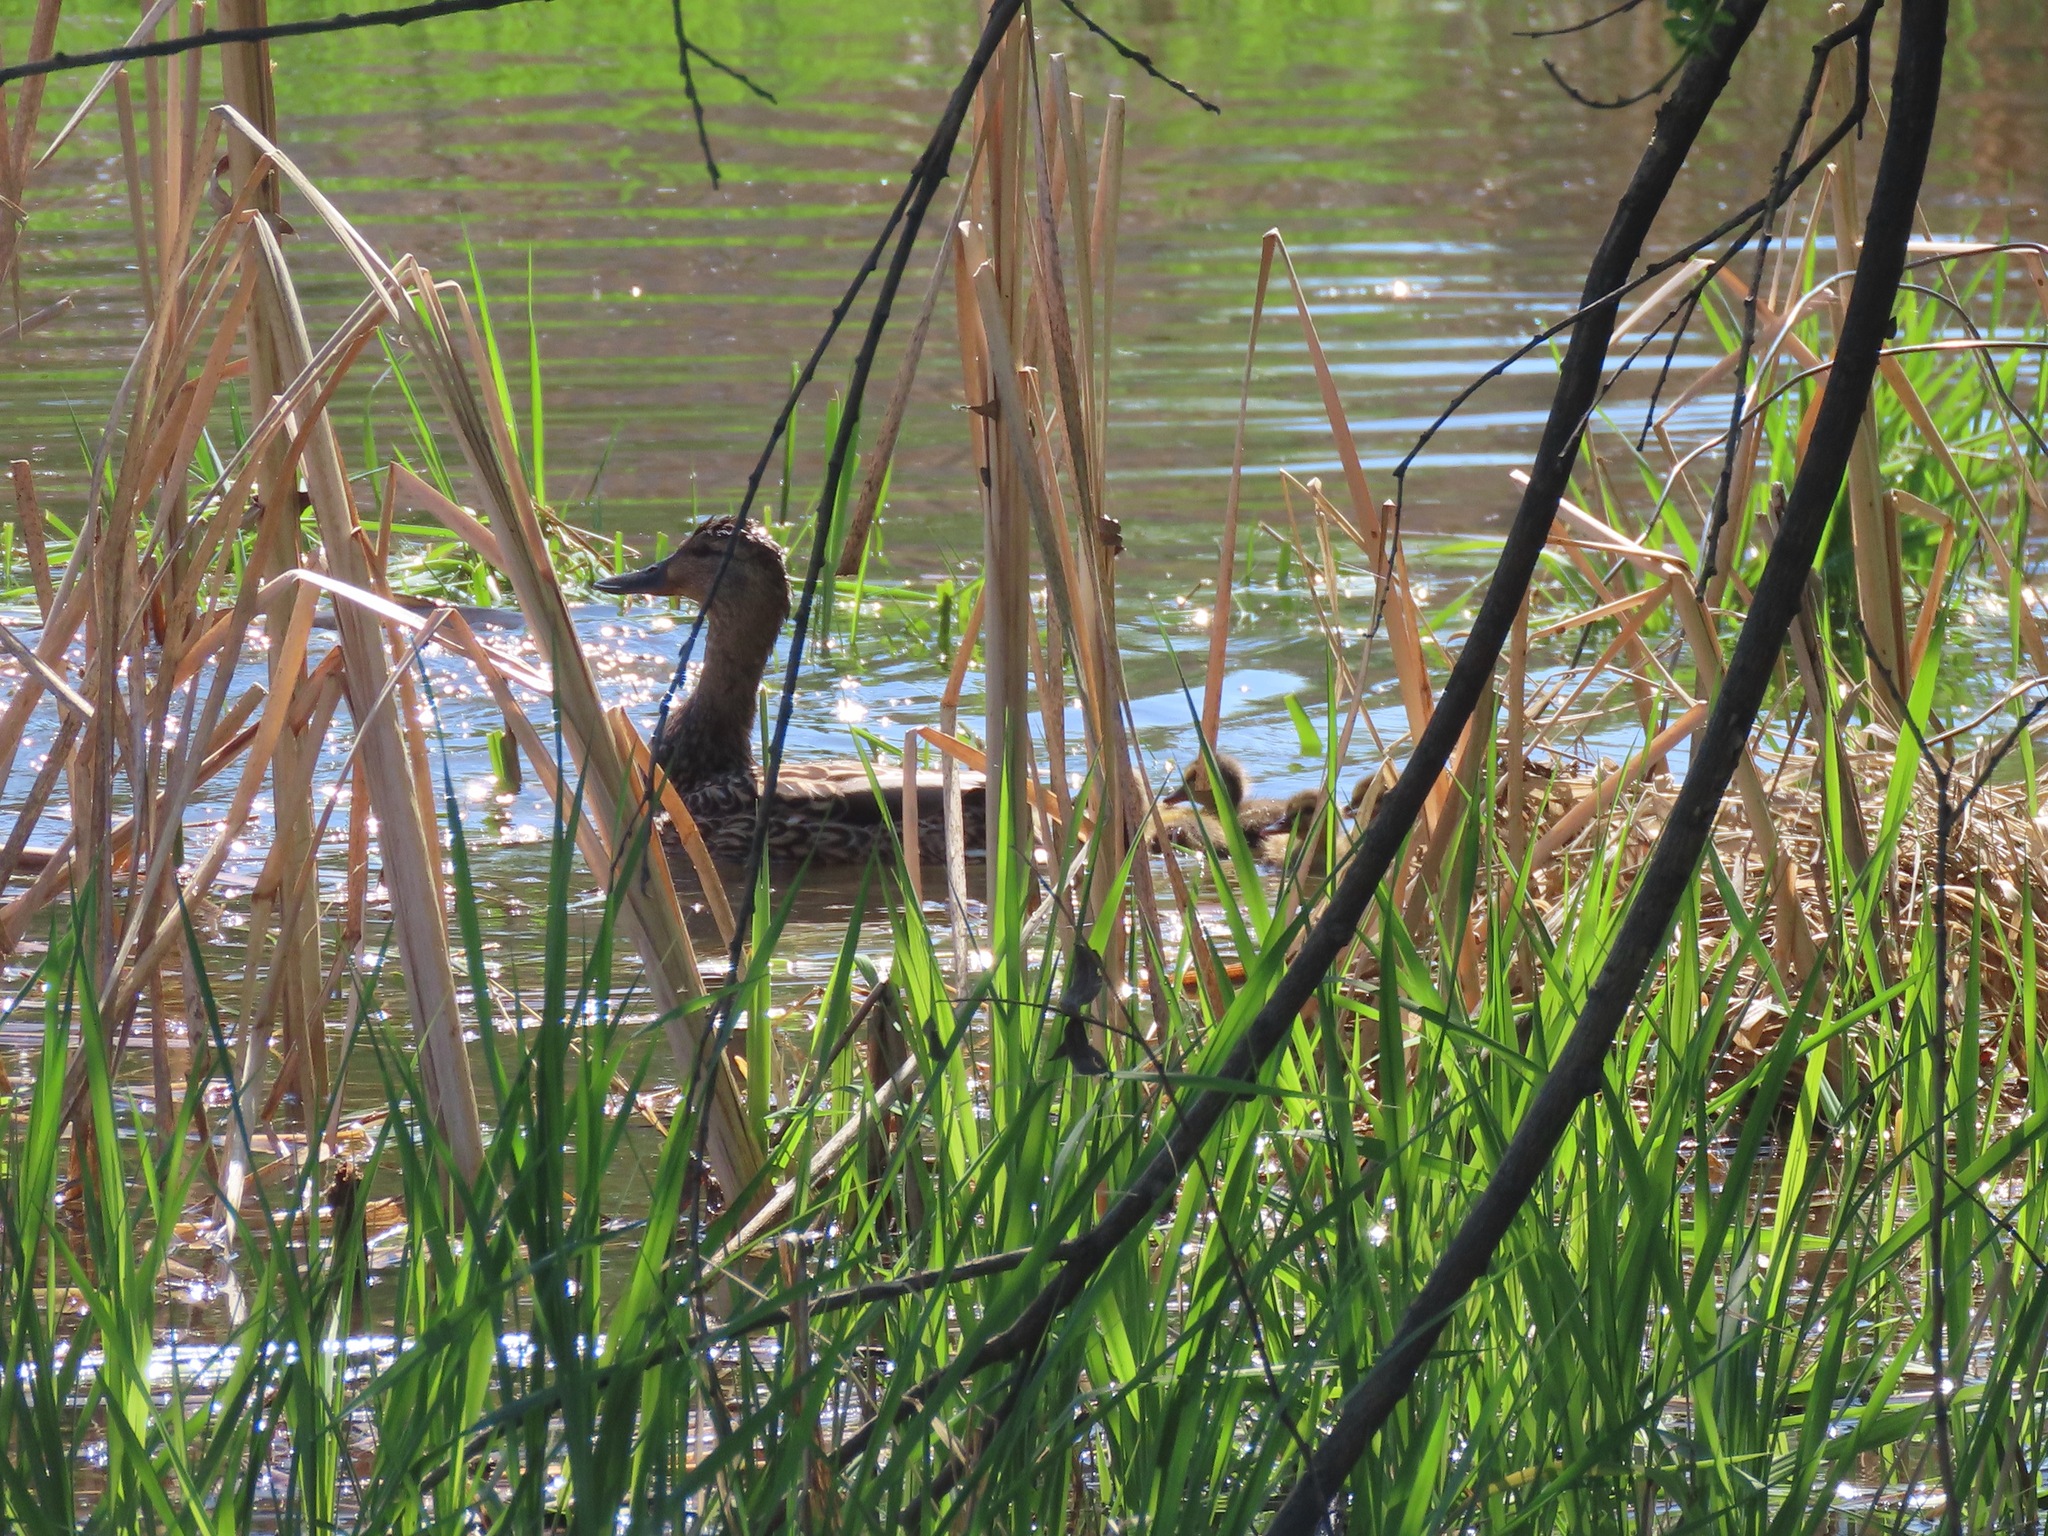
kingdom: Animalia
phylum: Chordata
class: Aves
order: Anseriformes
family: Anatidae
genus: Anas
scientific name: Anas platyrhynchos
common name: Mallard
